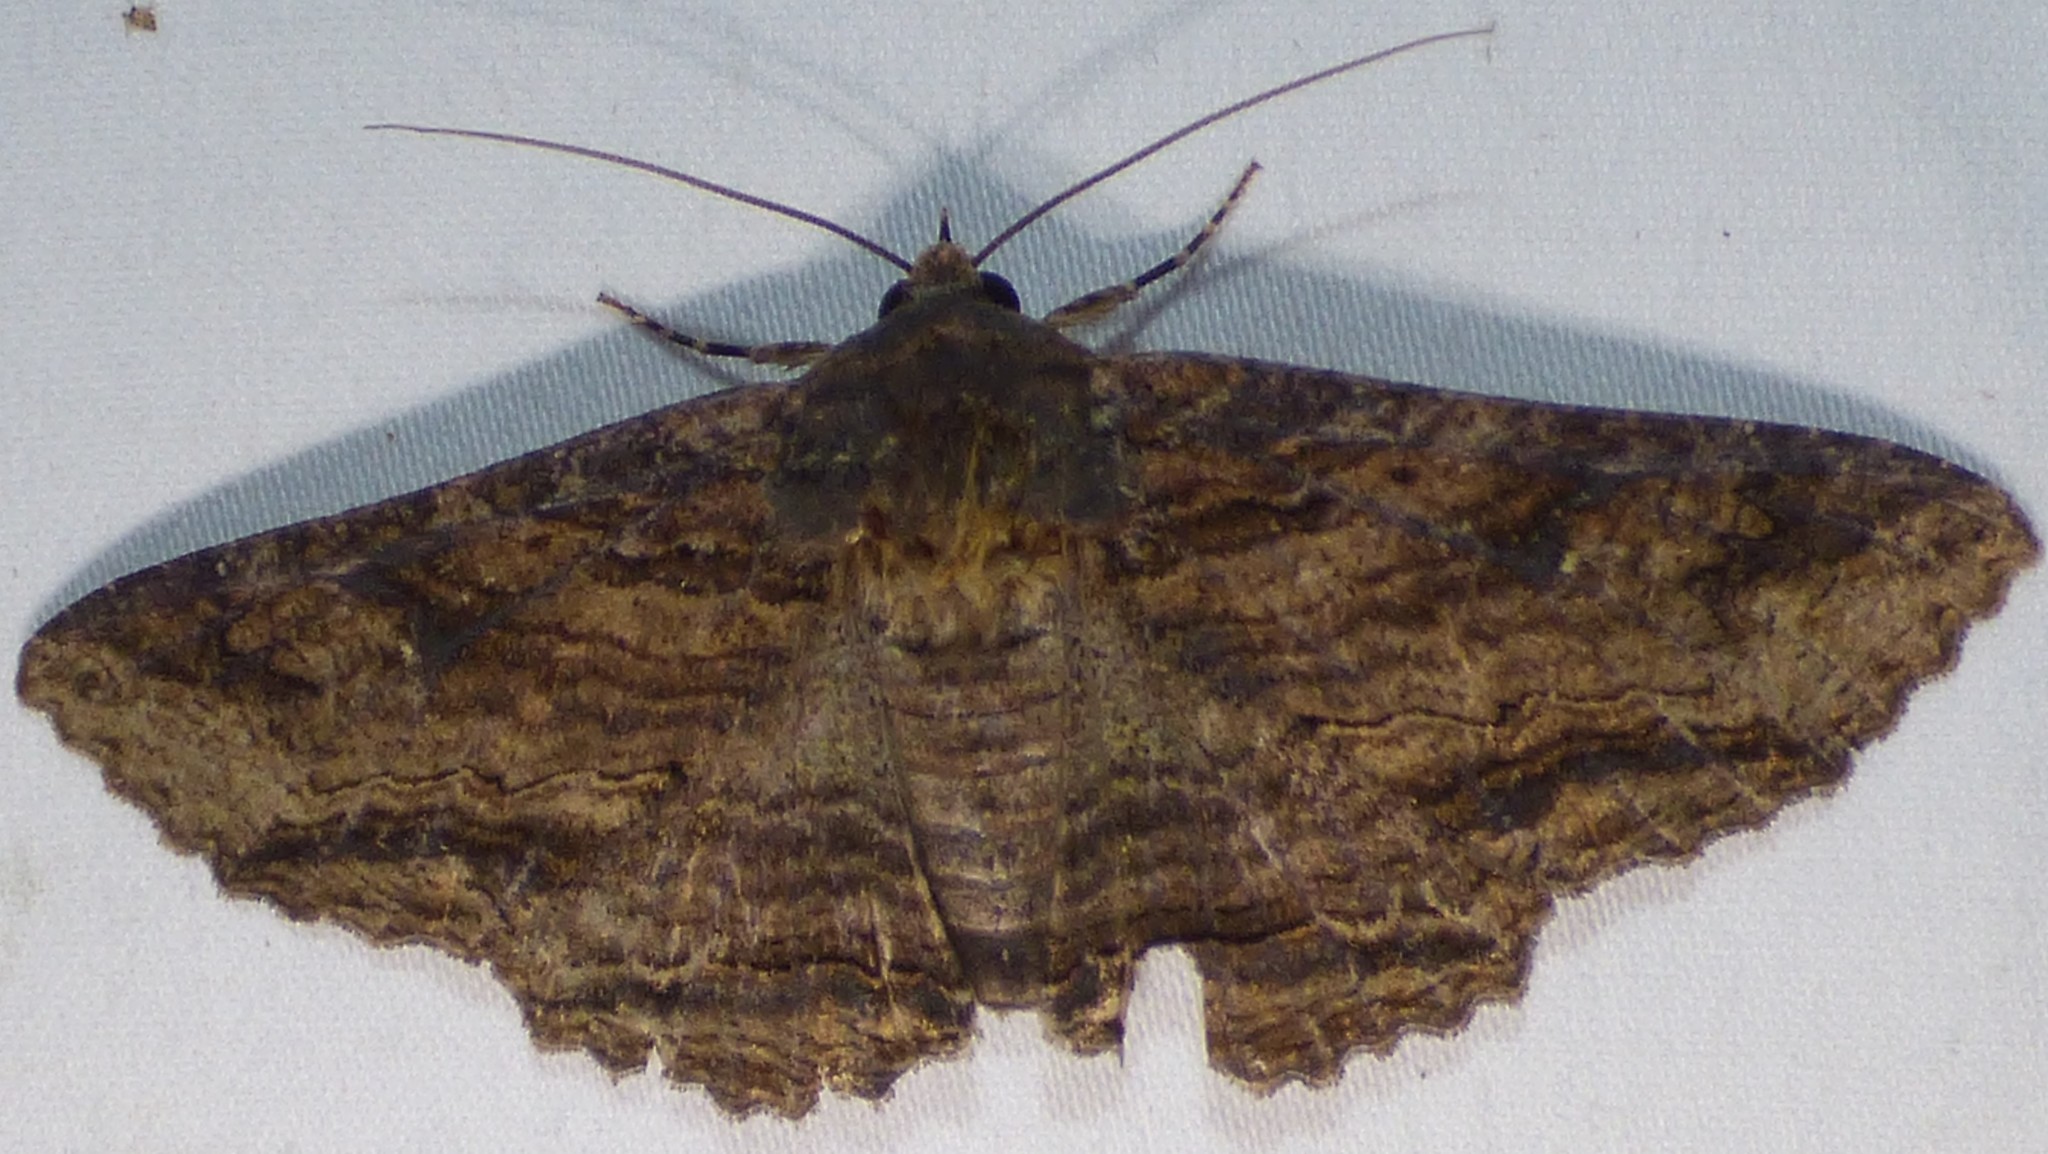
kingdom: Animalia
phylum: Arthropoda
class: Insecta
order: Lepidoptera
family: Erebidae
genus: Zale
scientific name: Zale lunata
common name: Lunate zale moth
